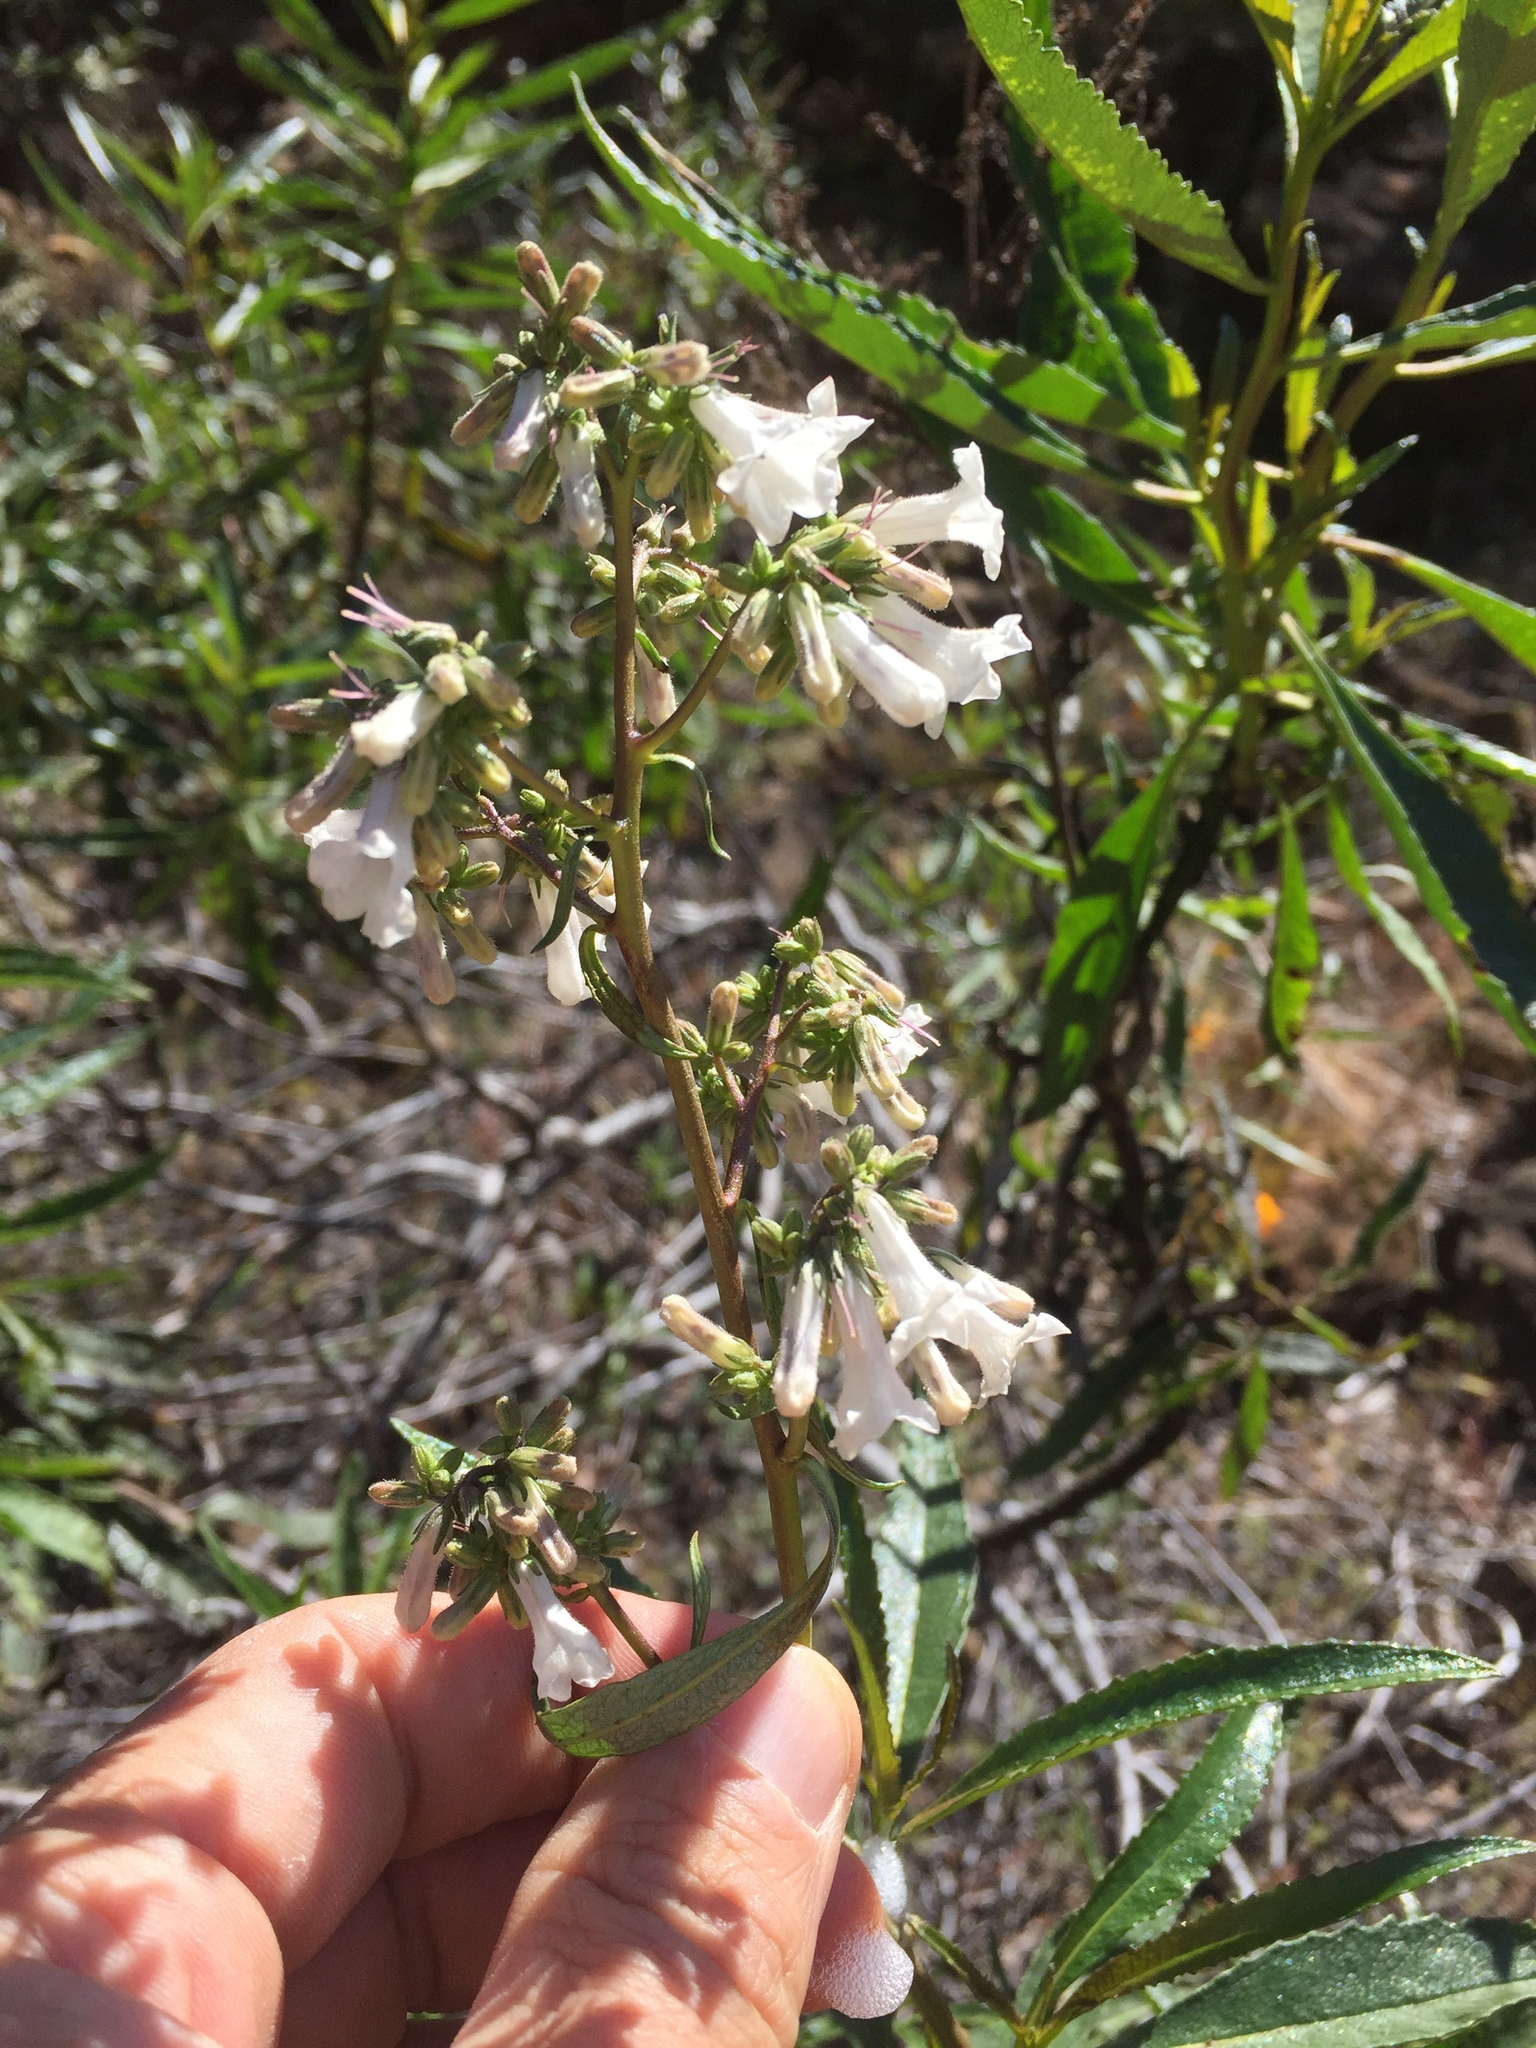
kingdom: Plantae
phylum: Tracheophyta
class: Magnoliopsida
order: Boraginales
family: Namaceae
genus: Eriodictyon
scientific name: Eriodictyon californicum
